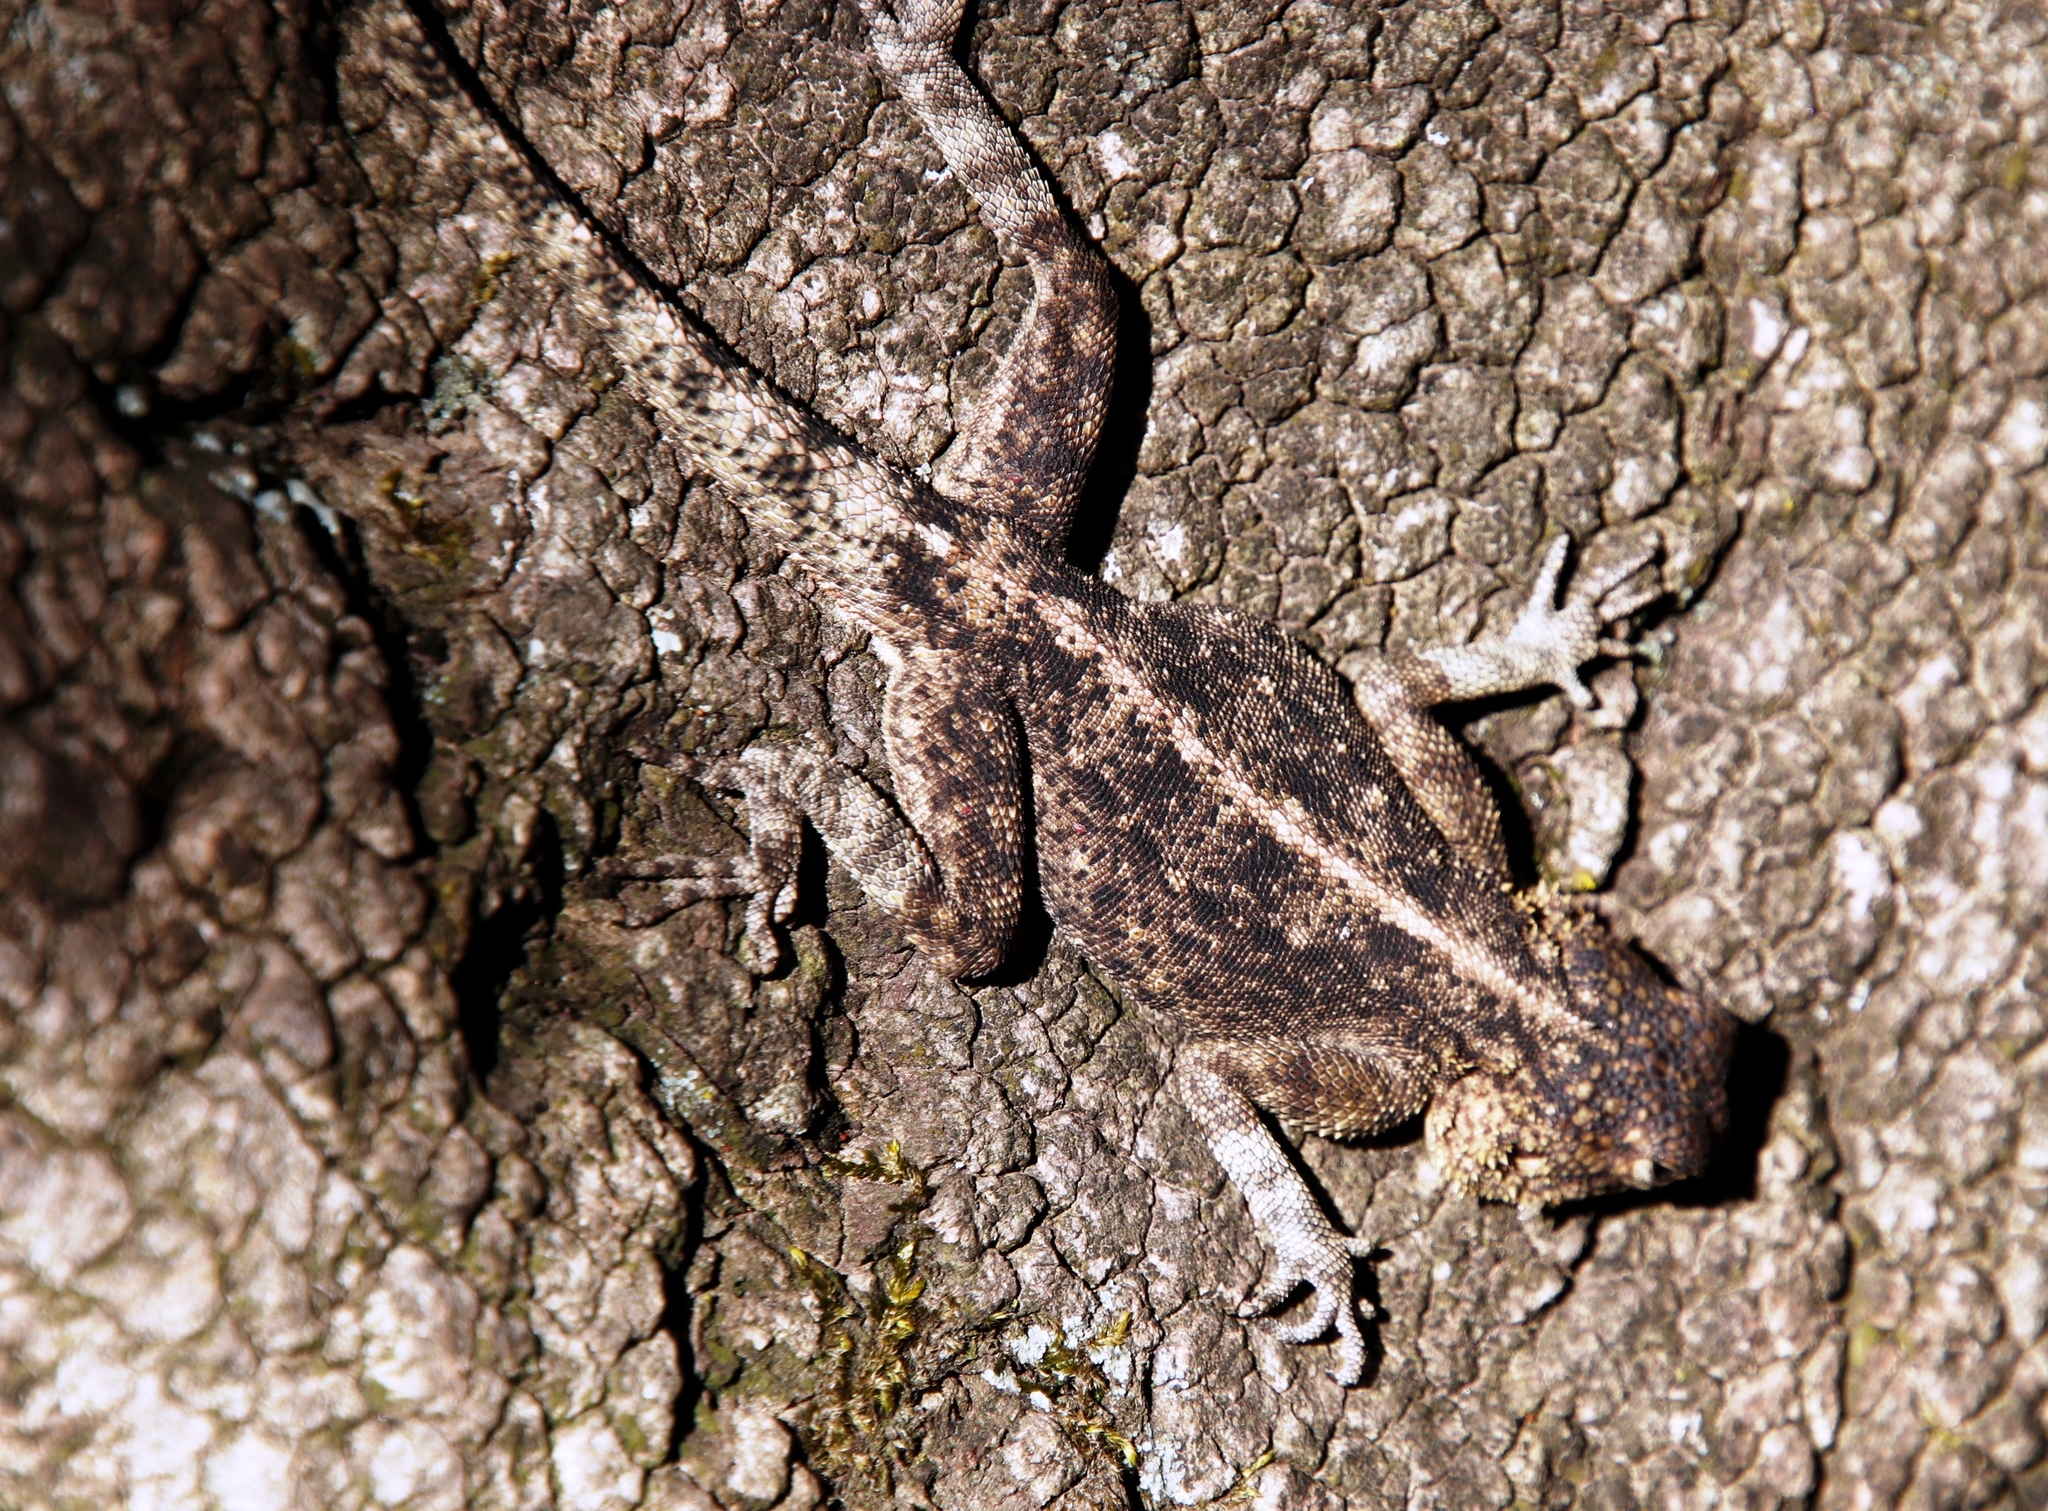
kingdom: Animalia
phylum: Chordata
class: Squamata
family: Agamidae
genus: Agama
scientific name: Agama atra
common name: Southern african rock agama
